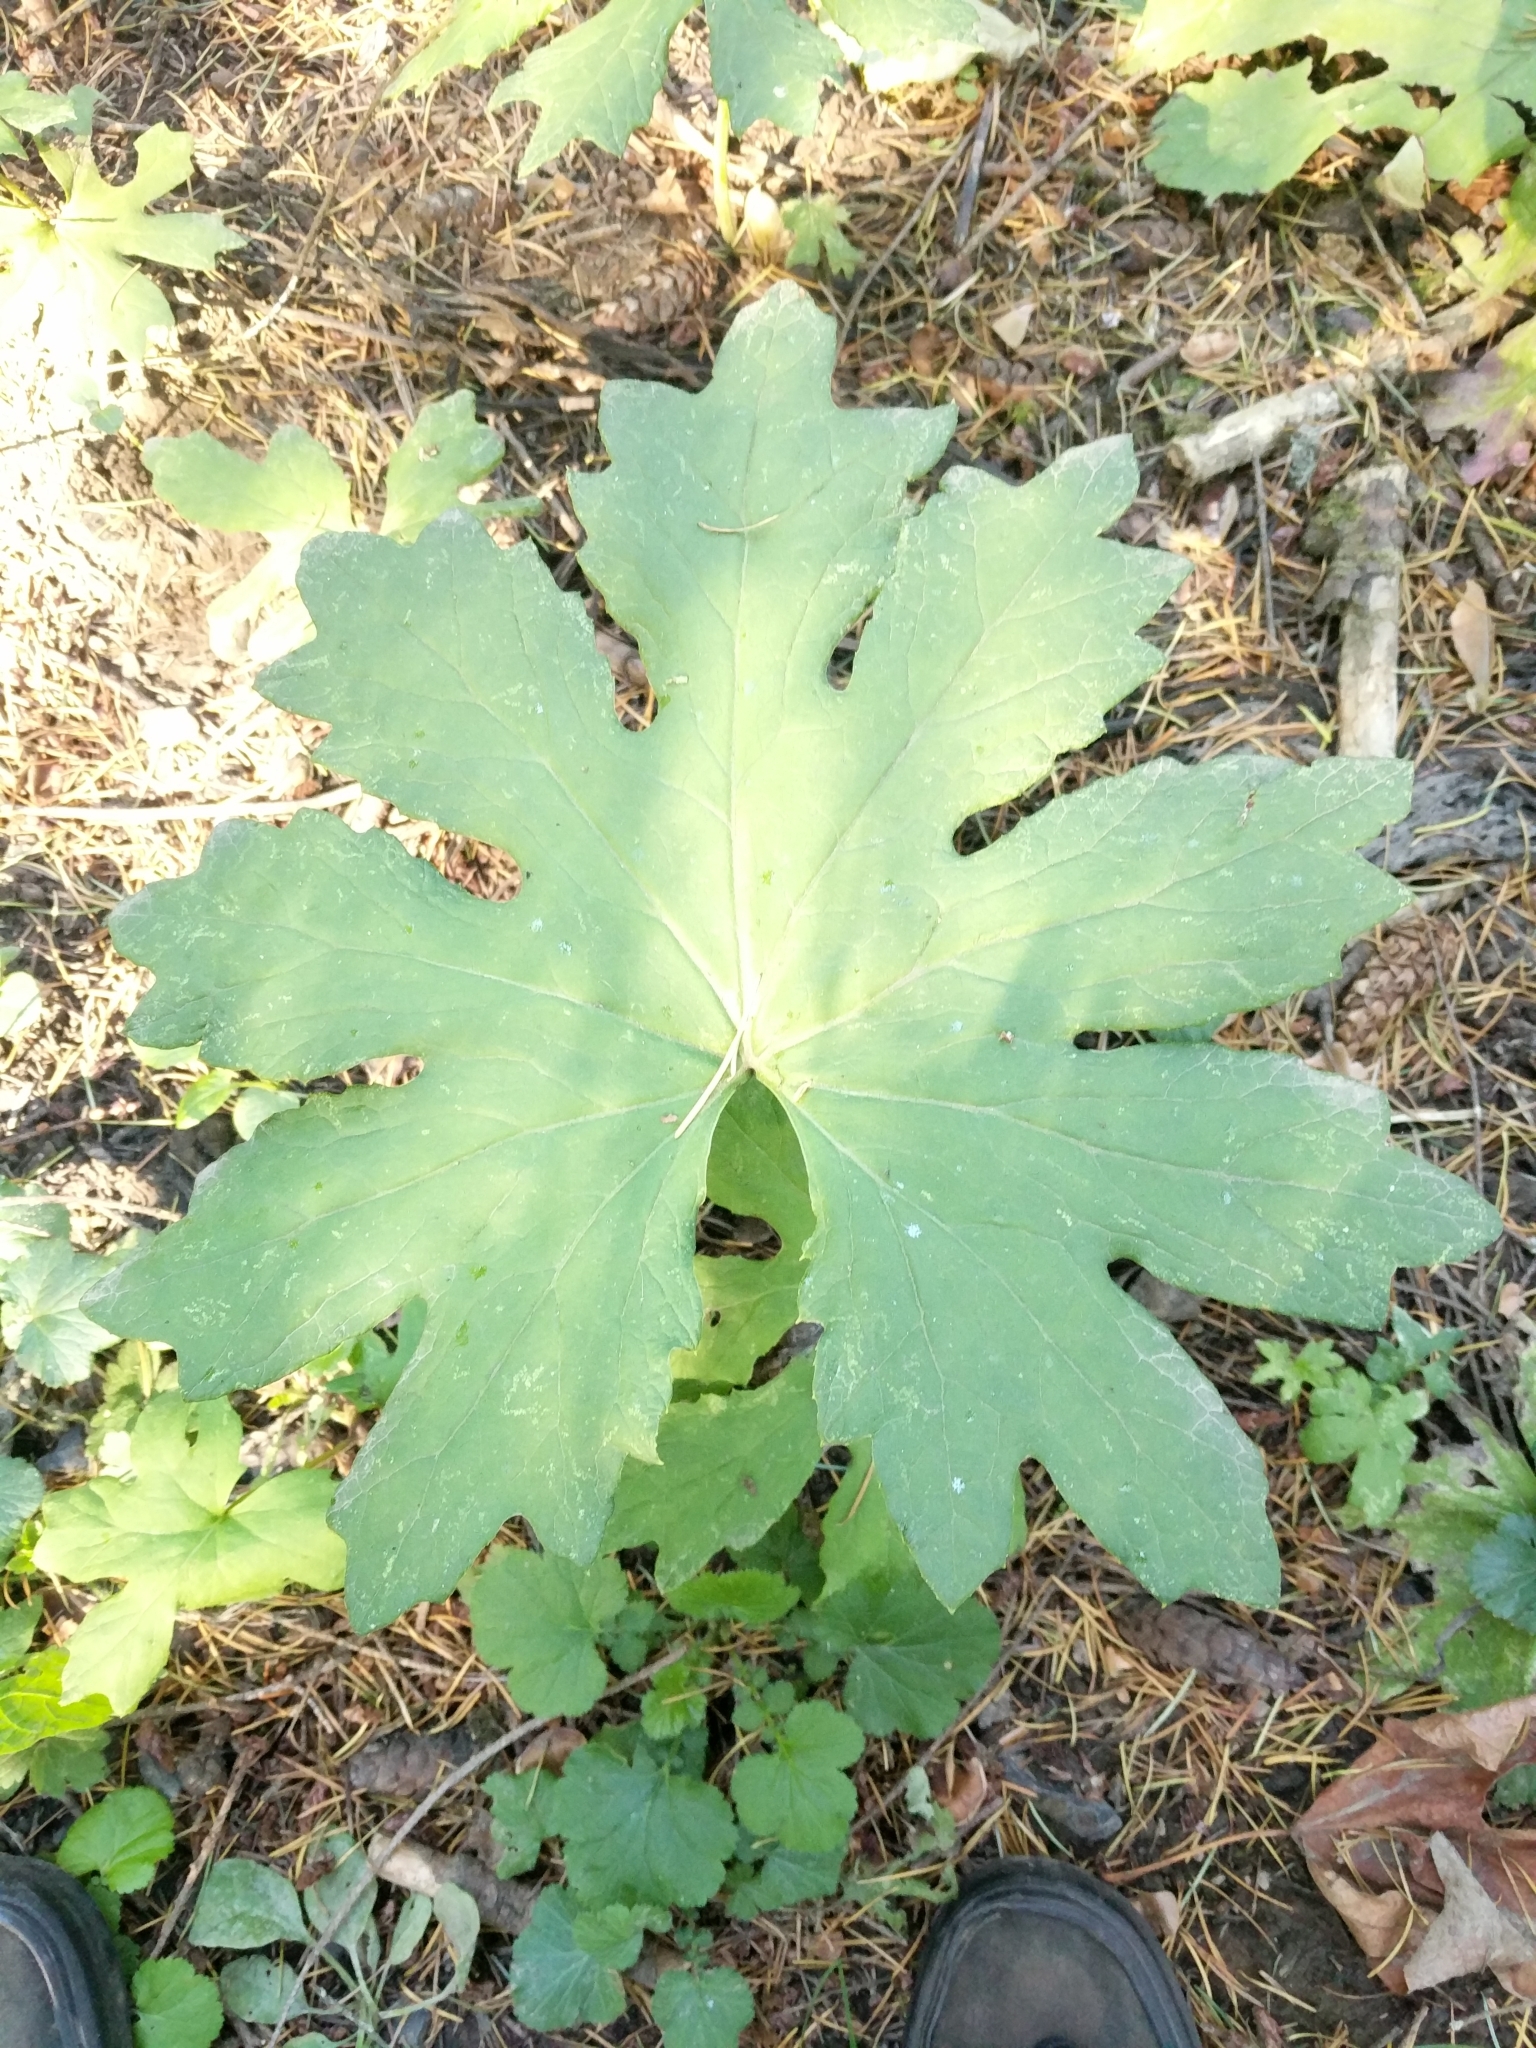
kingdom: Plantae
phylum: Tracheophyta
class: Magnoliopsida
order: Asterales
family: Asteraceae
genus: Petasites
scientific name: Petasites frigidus
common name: Arctic butterbur
